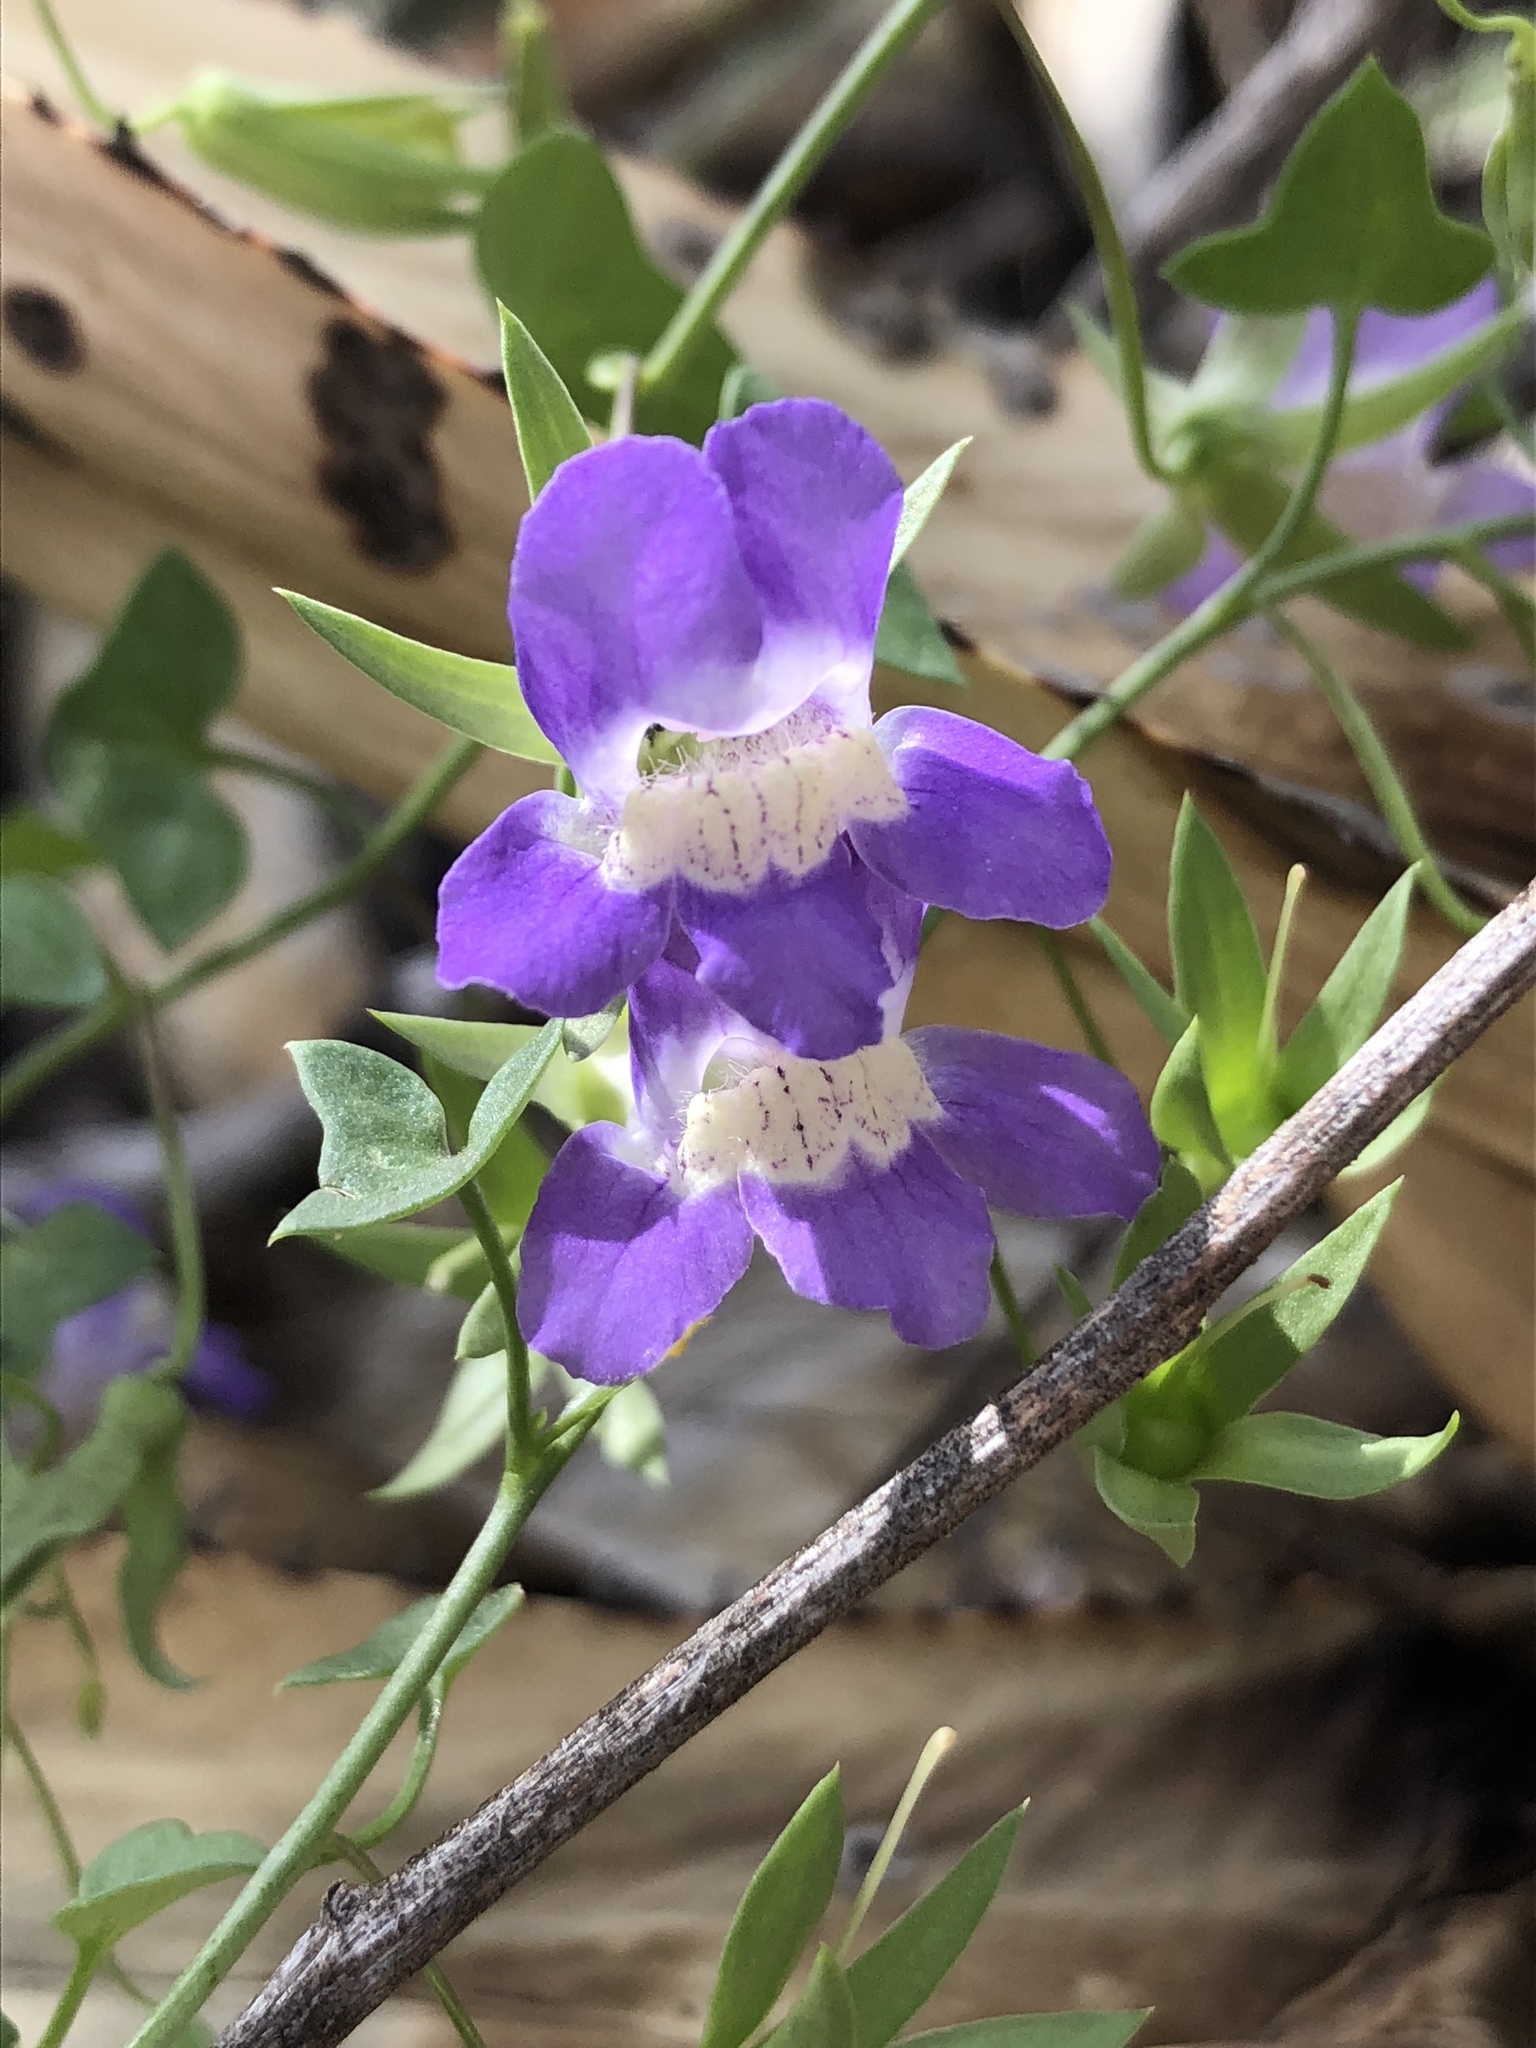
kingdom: Plantae
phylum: Tracheophyta
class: Magnoliopsida
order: Lamiales
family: Plantaginaceae
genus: Maurandella
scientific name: Maurandella antirrhiniflora
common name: Violet twining-snapdragon
